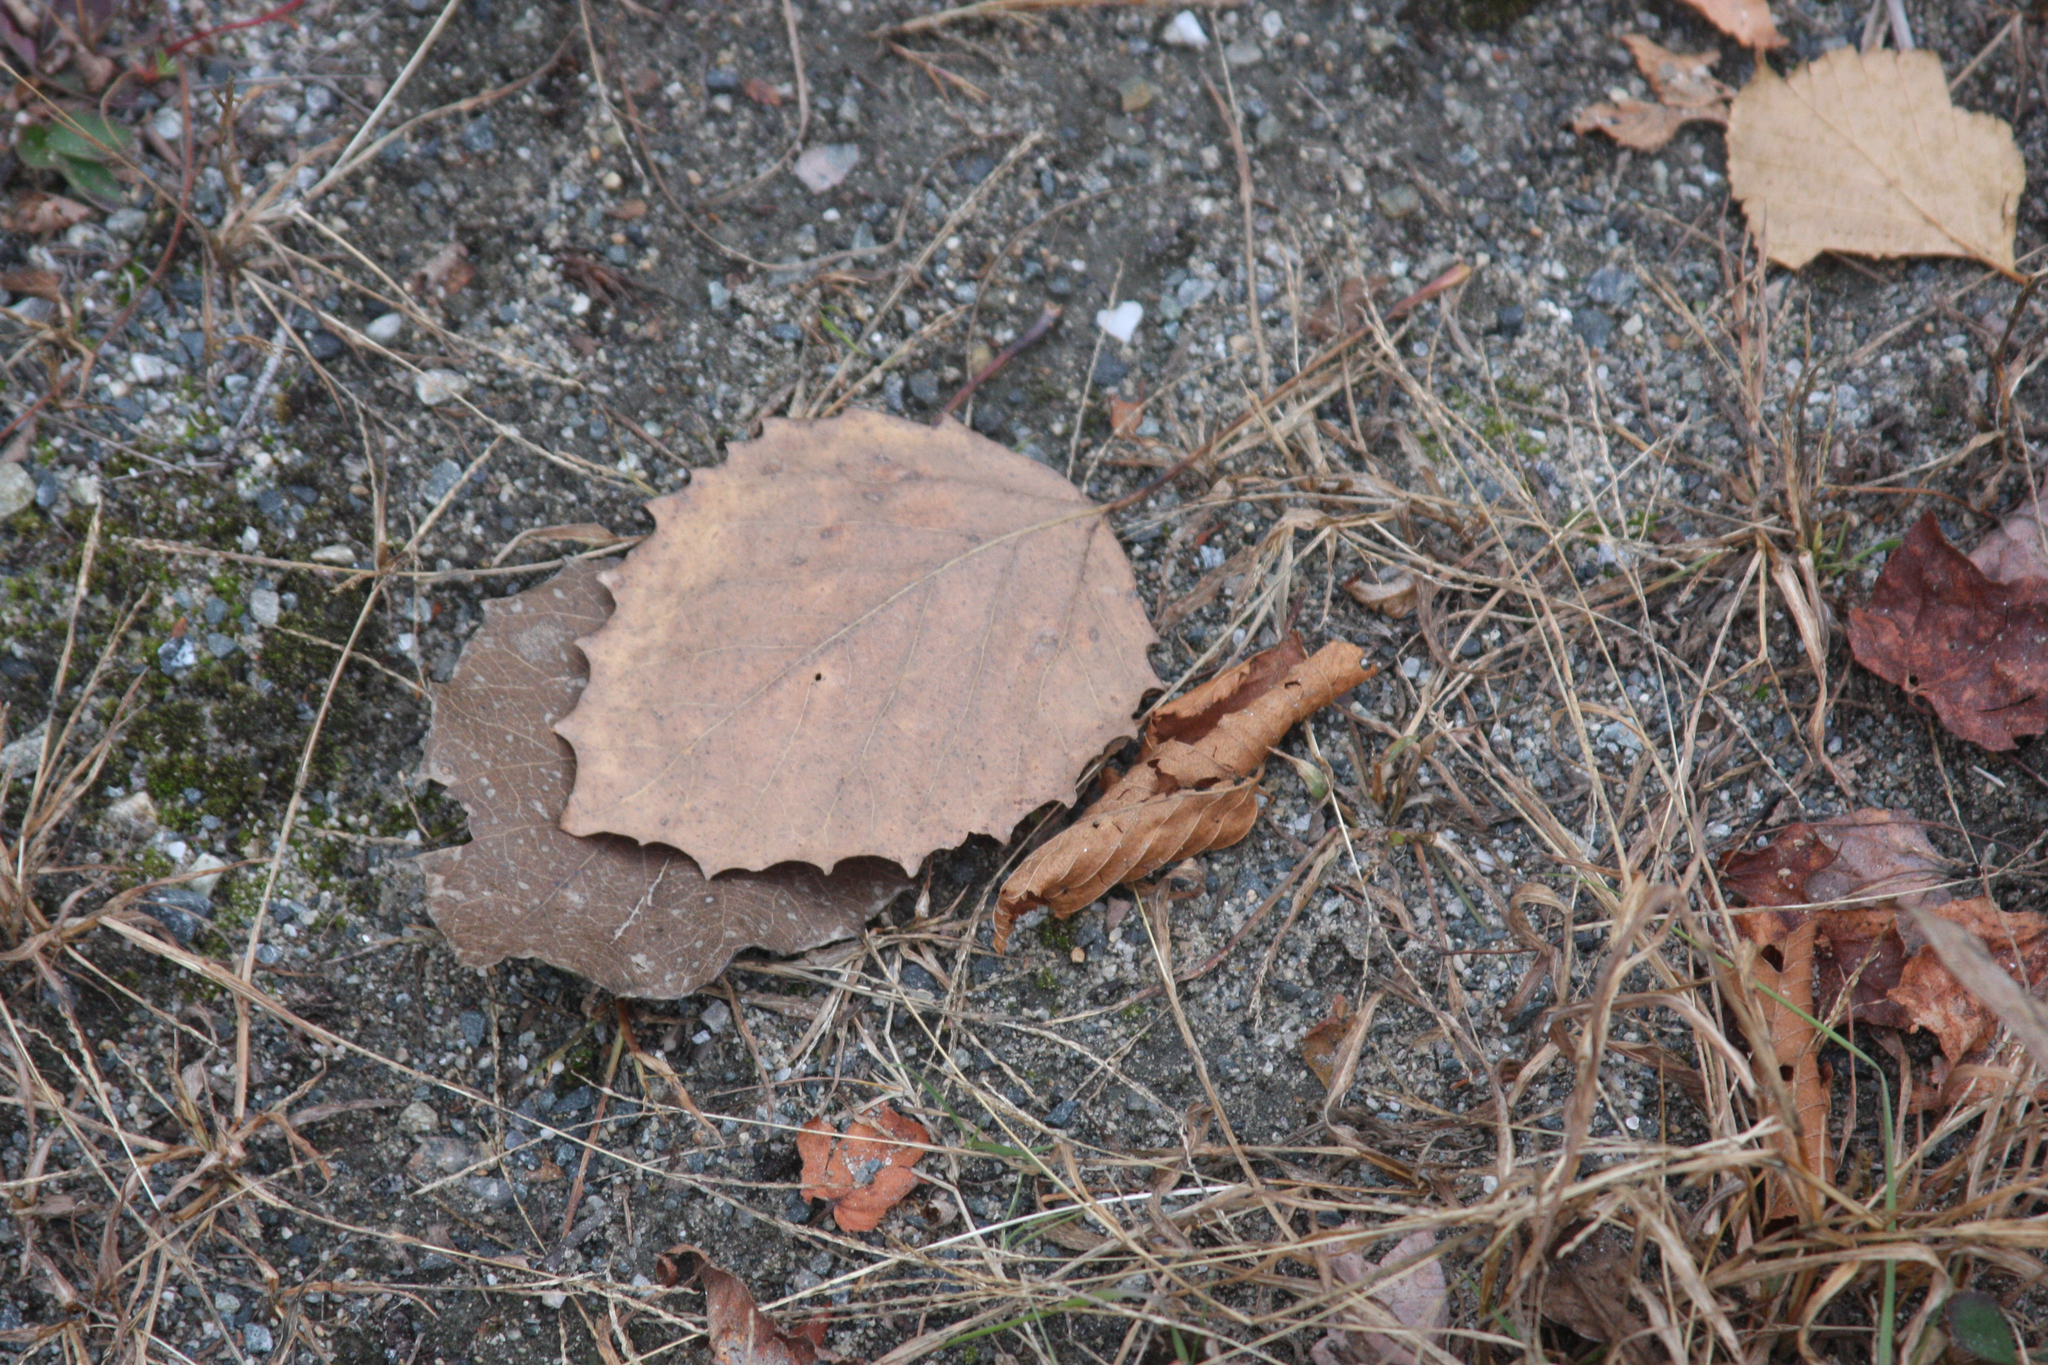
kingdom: Plantae
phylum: Tracheophyta
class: Magnoliopsida
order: Malpighiales
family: Salicaceae
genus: Populus
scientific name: Populus grandidentata
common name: Bigtooth aspen
